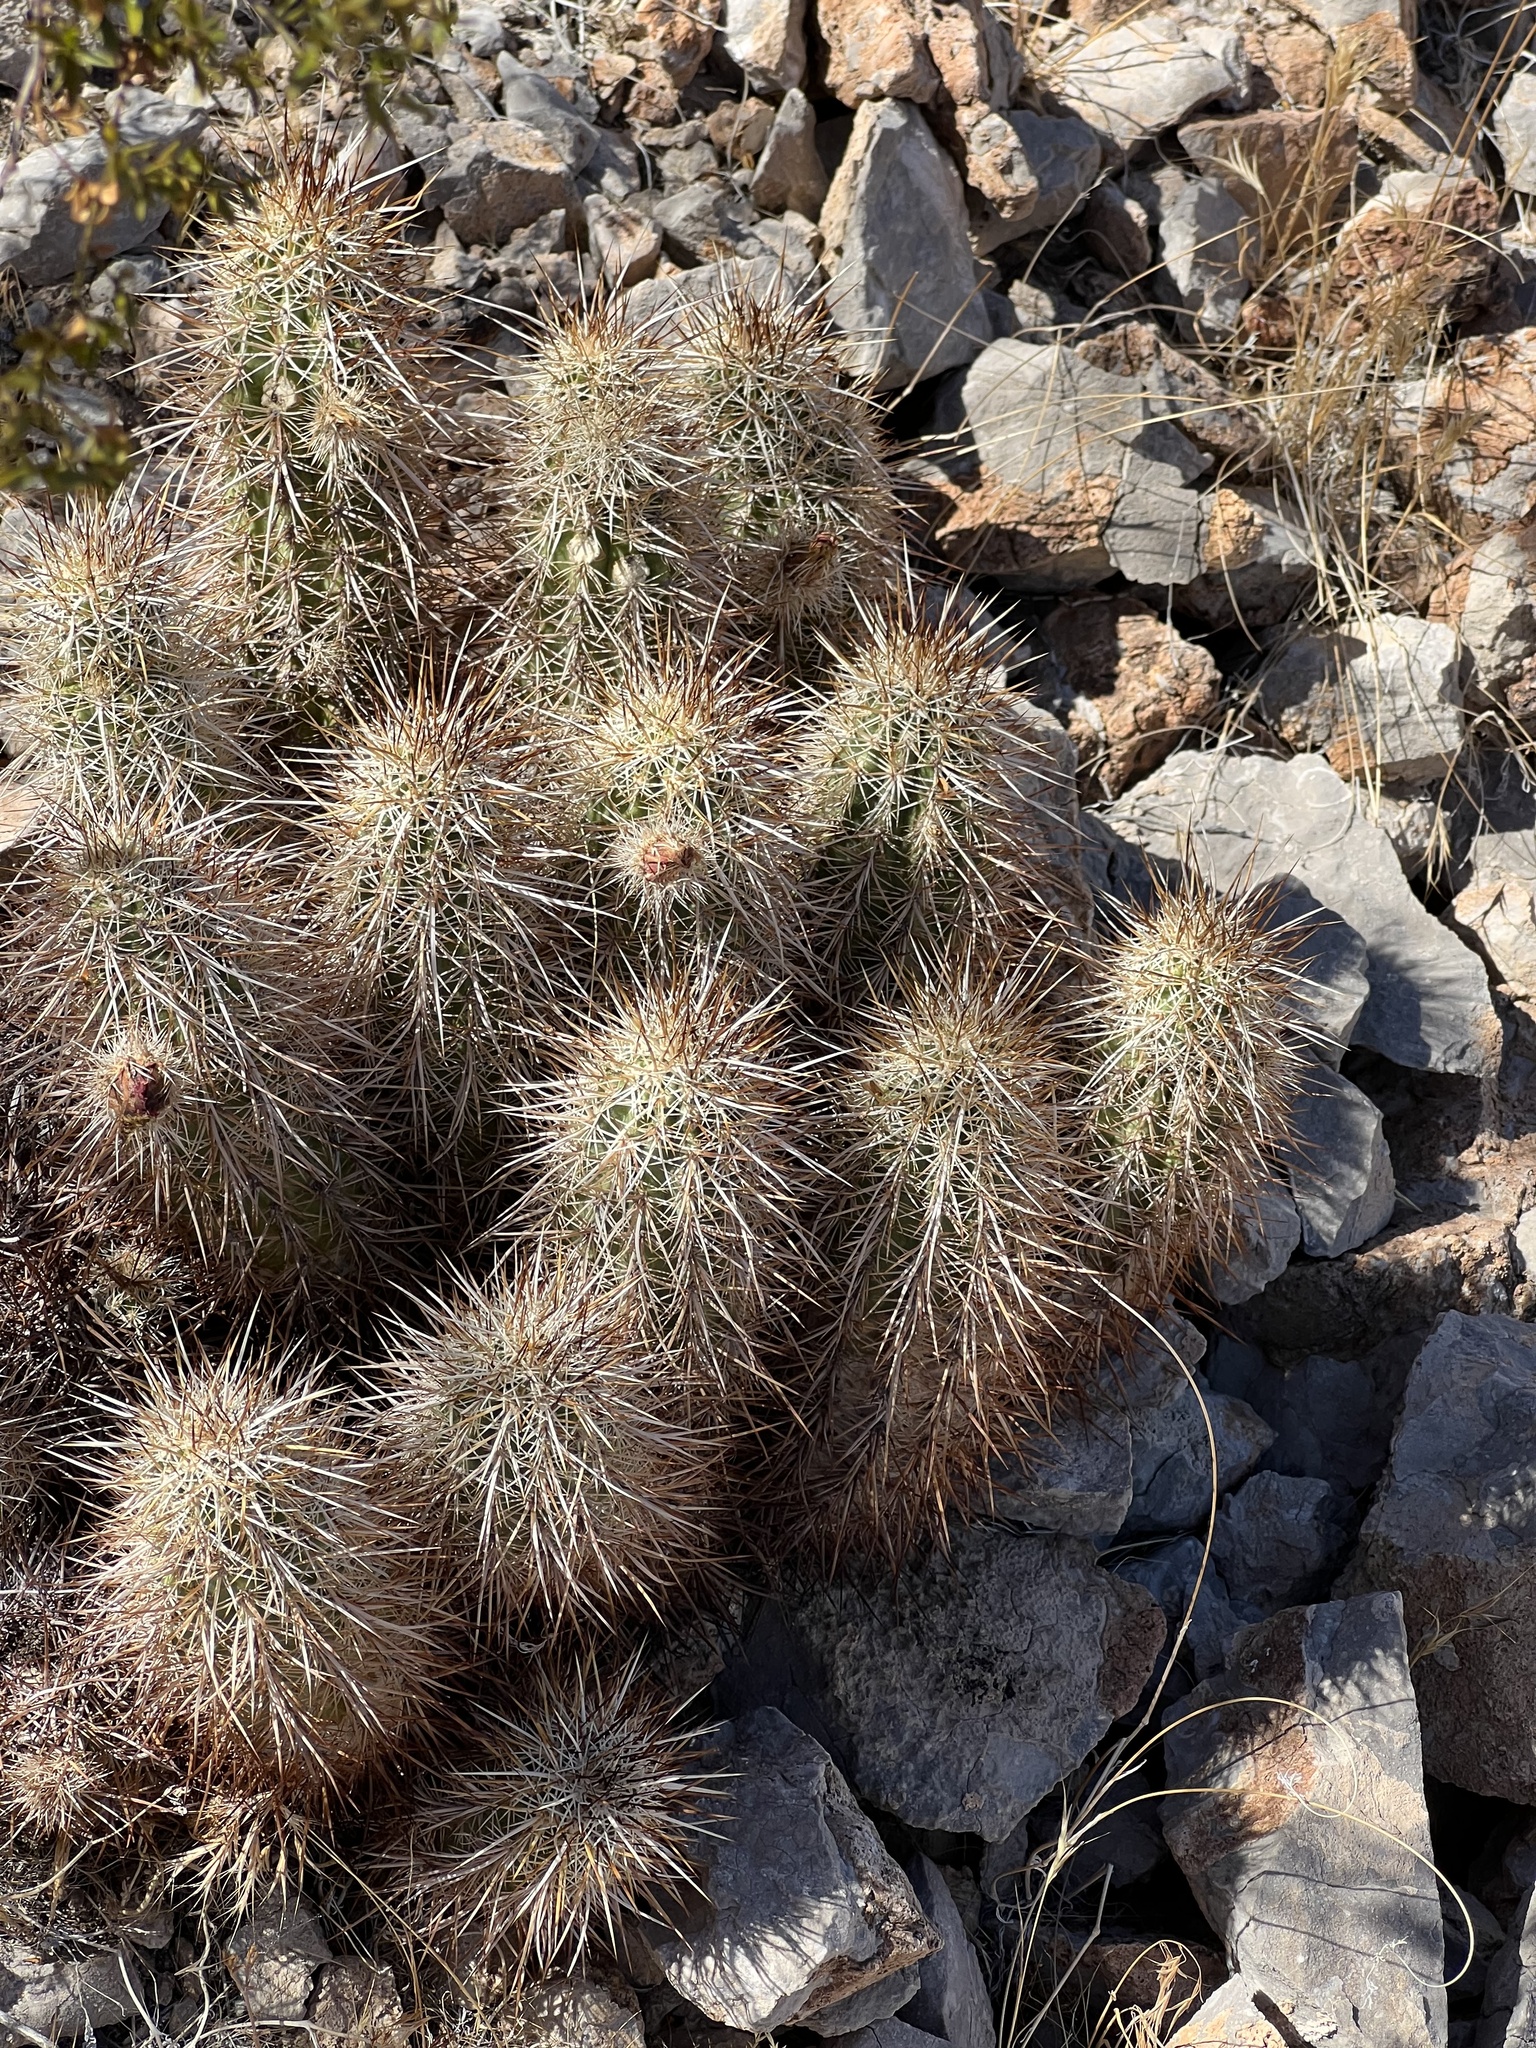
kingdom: Plantae
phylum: Tracheophyta
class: Magnoliopsida
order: Caryophyllales
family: Cactaceae
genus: Echinocereus
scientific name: Echinocereus engelmannii
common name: Engelmann's hedgehog cactus
